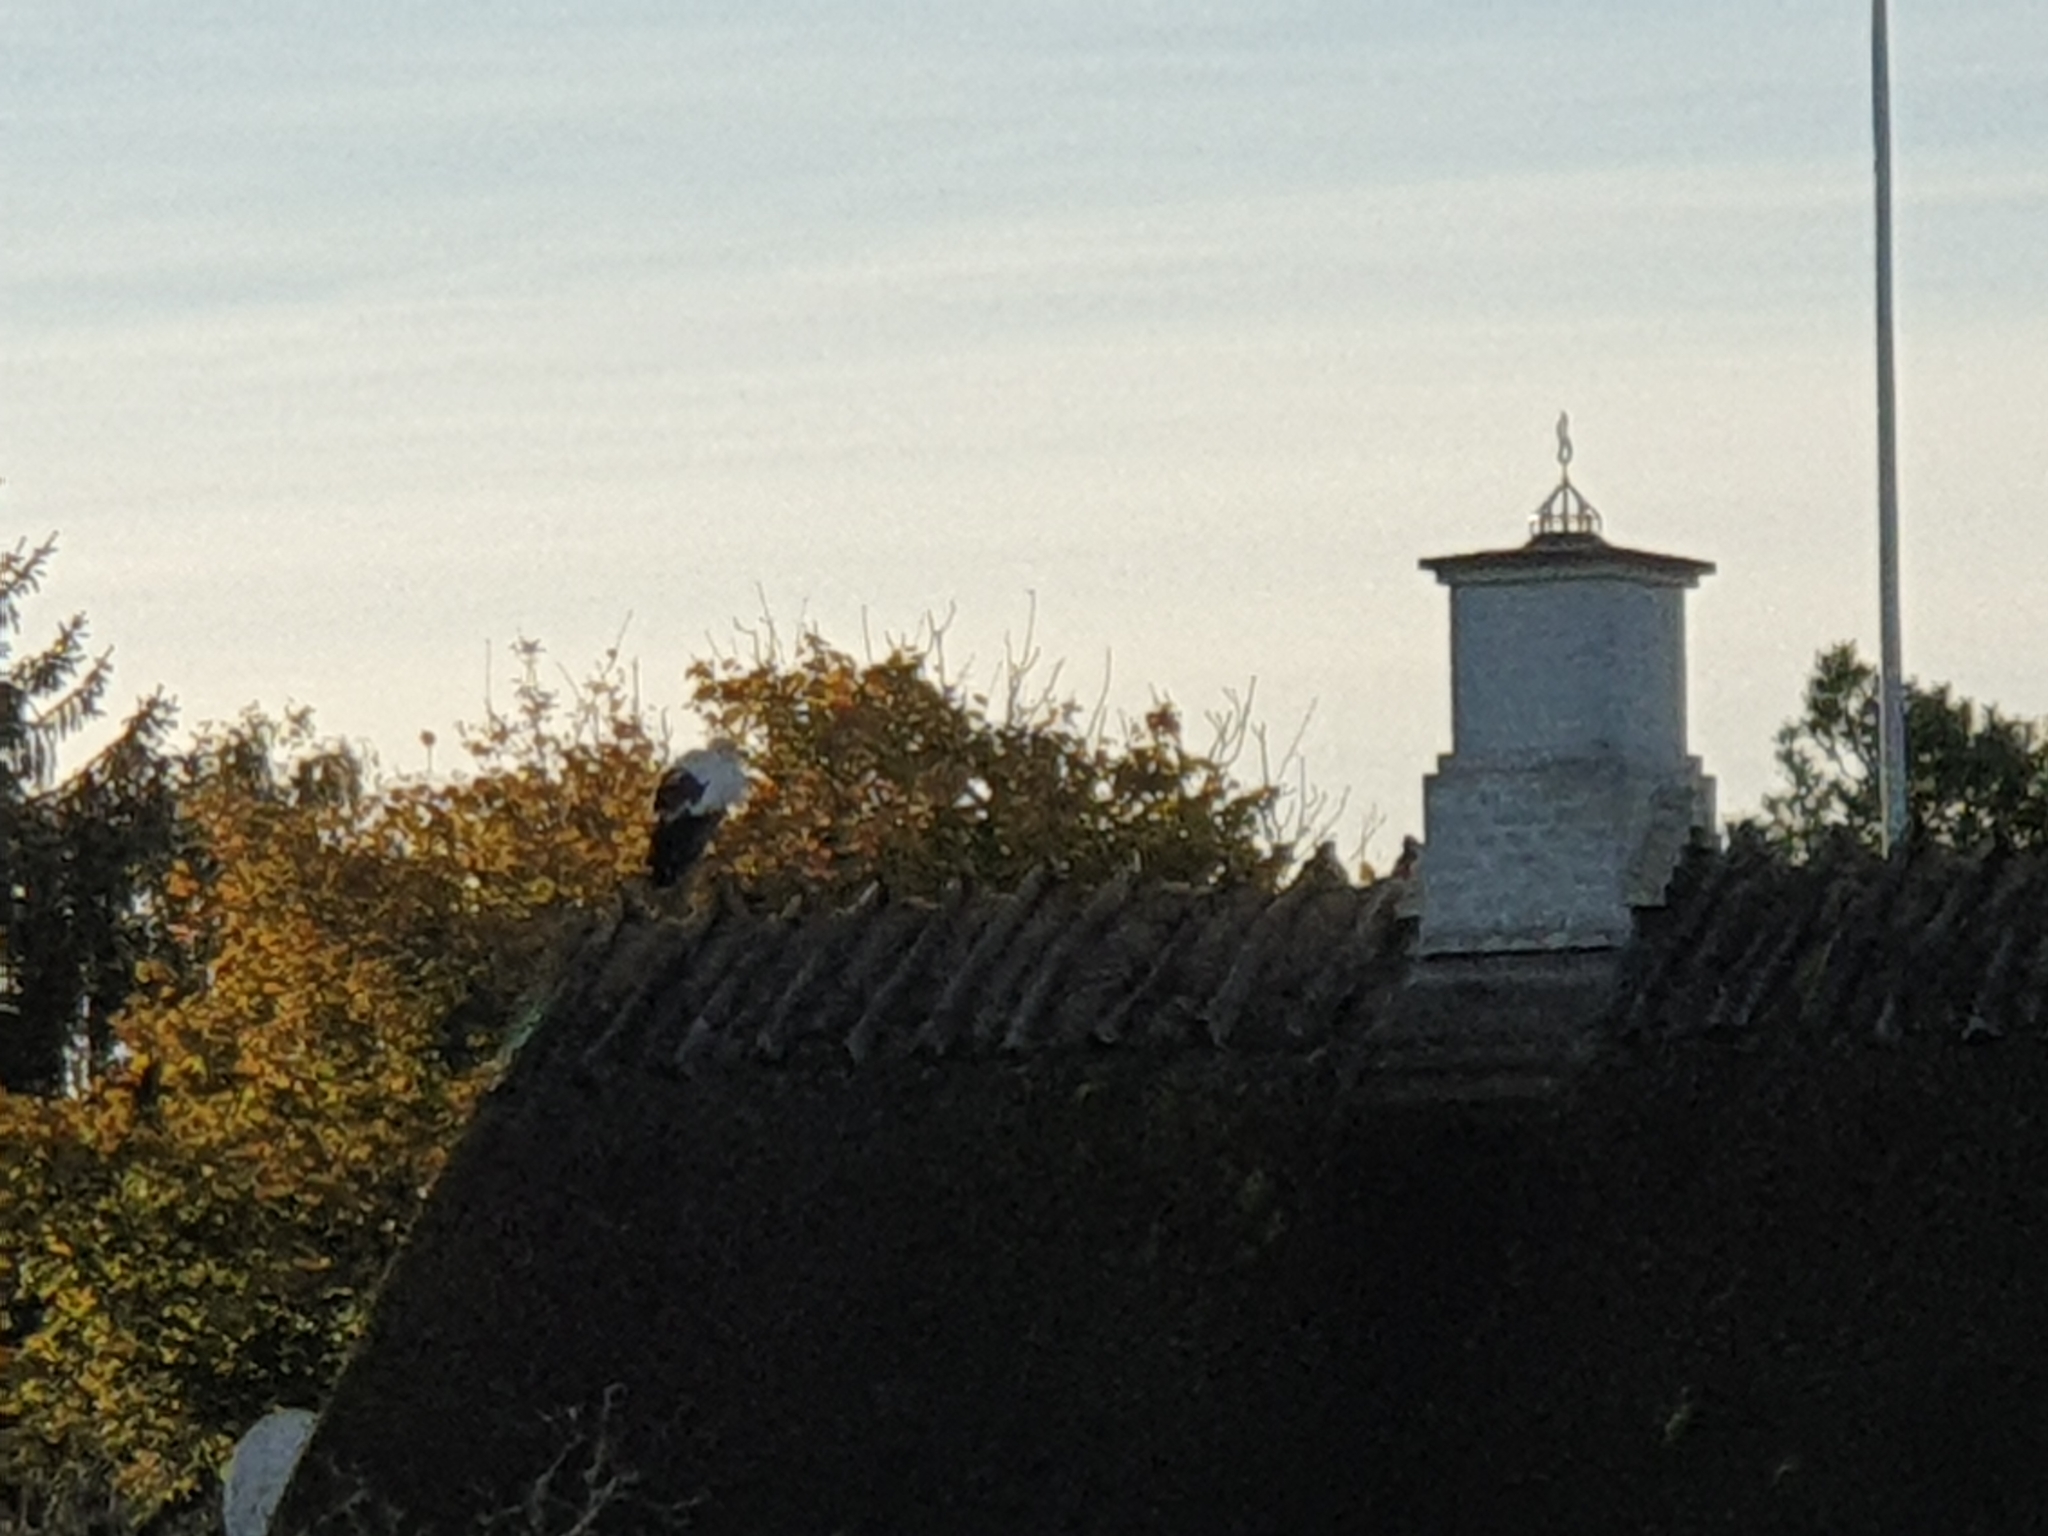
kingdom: Animalia
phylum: Chordata
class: Aves
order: Ciconiiformes
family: Ciconiidae
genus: Ciconia
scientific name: Ciconia ciconia
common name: White stork
